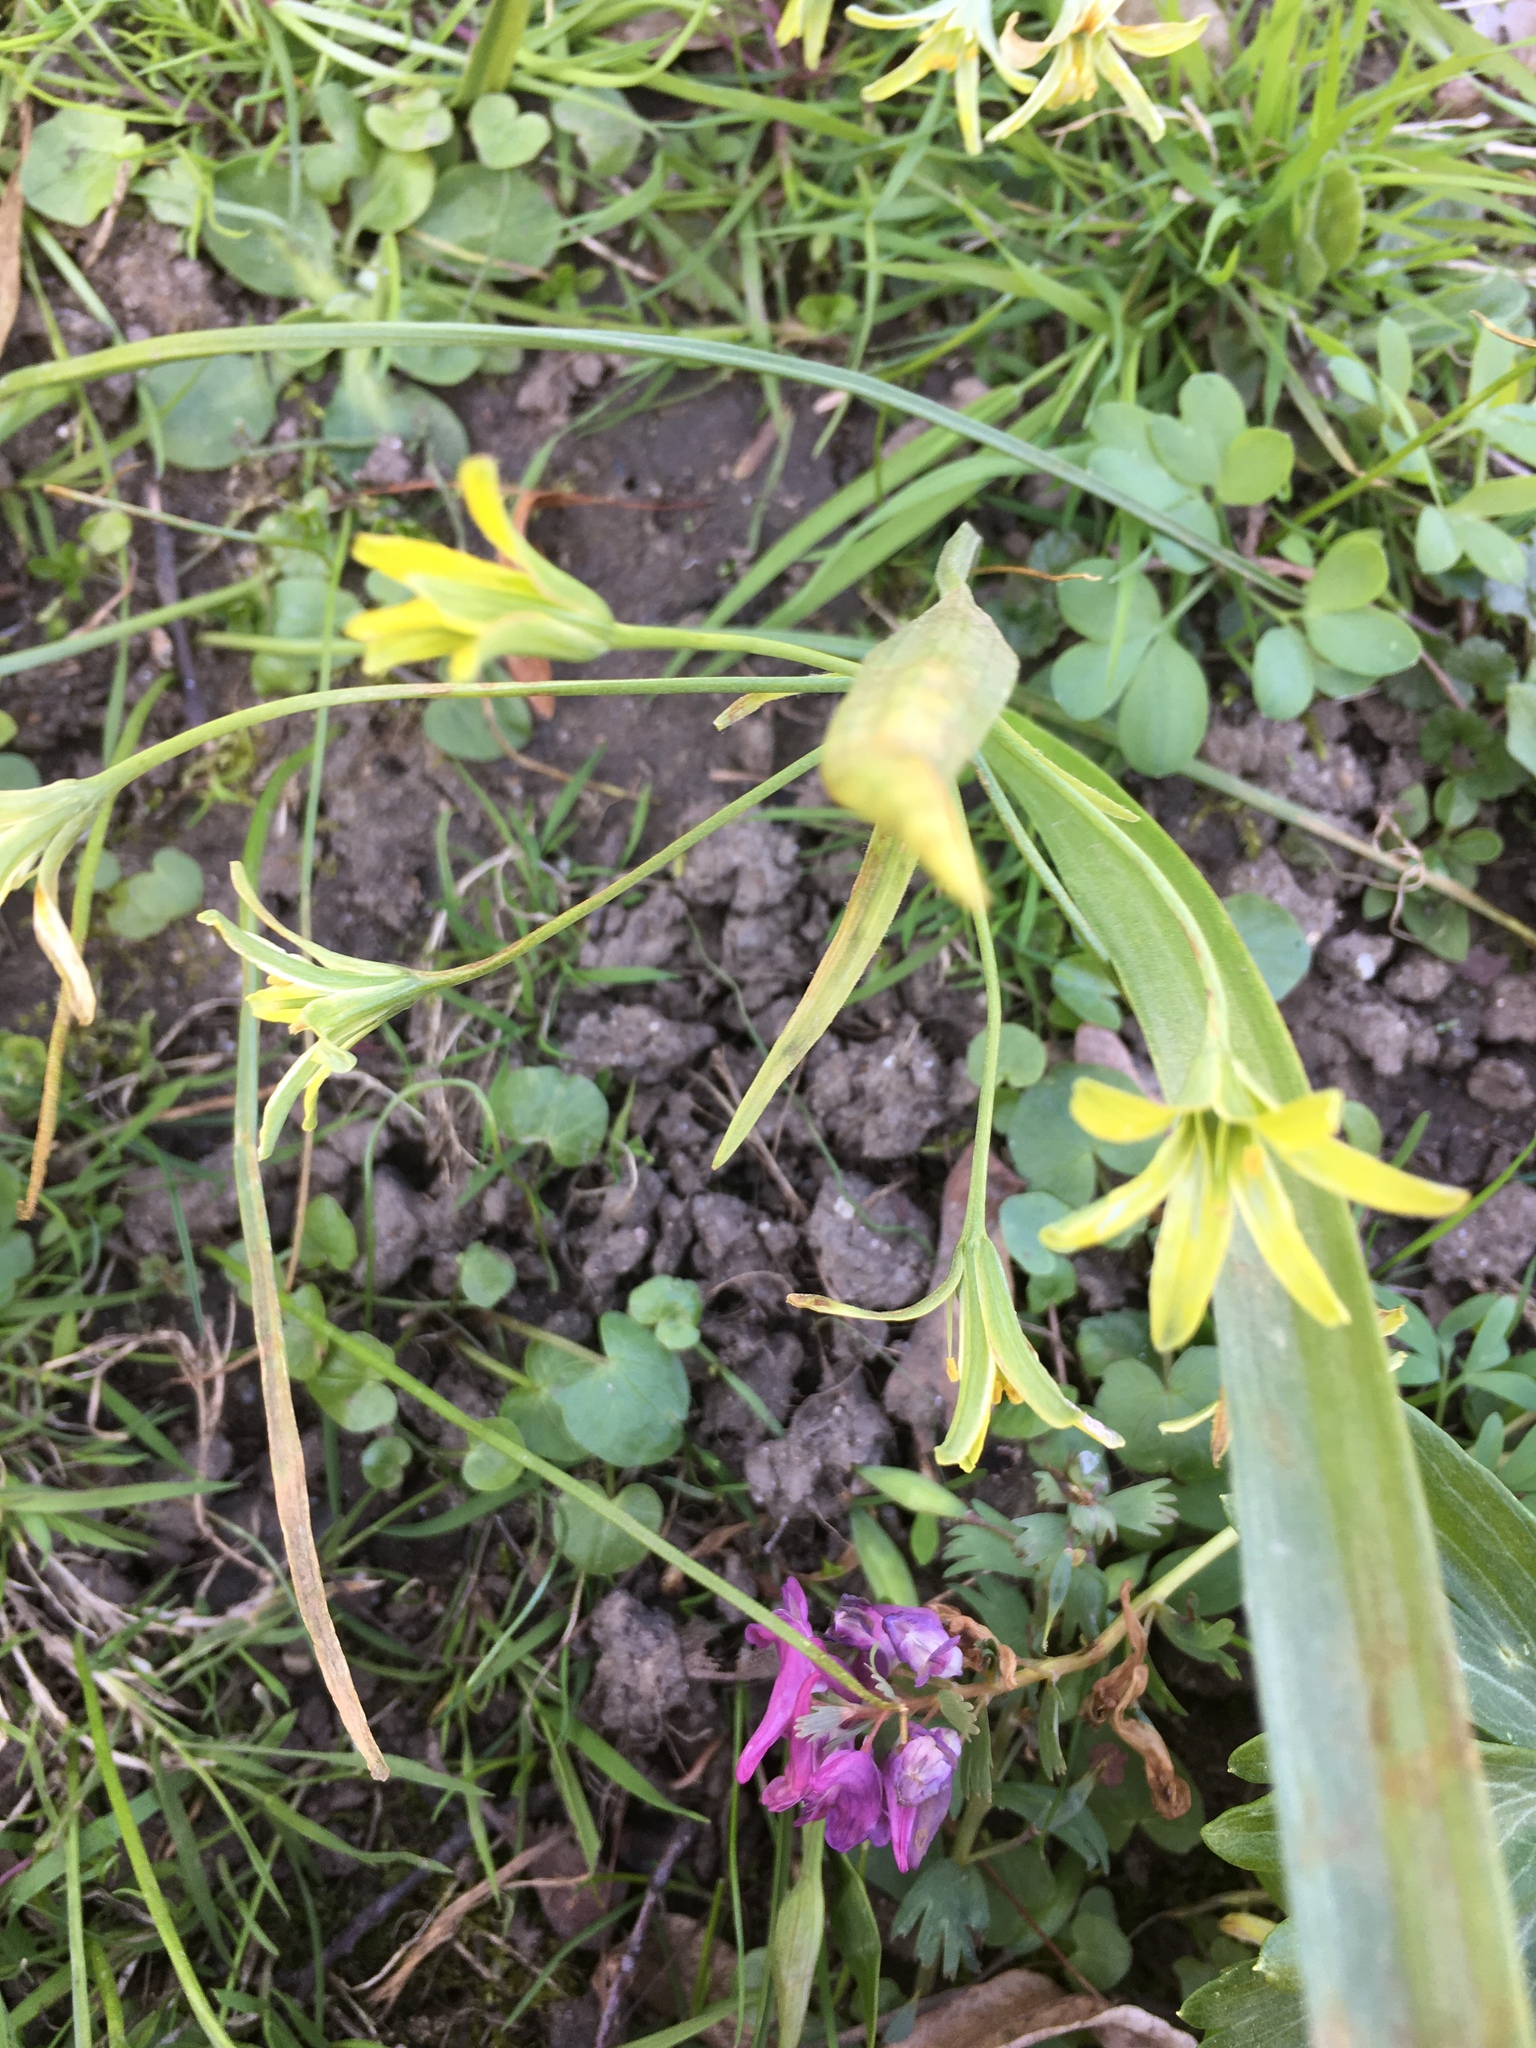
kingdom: Plantae
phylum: Tracheophyta
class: Liliopsida
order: Liliales
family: Liliaceae
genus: Gagea
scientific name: Gagea lutea
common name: Yellow star-of-bethlehem
